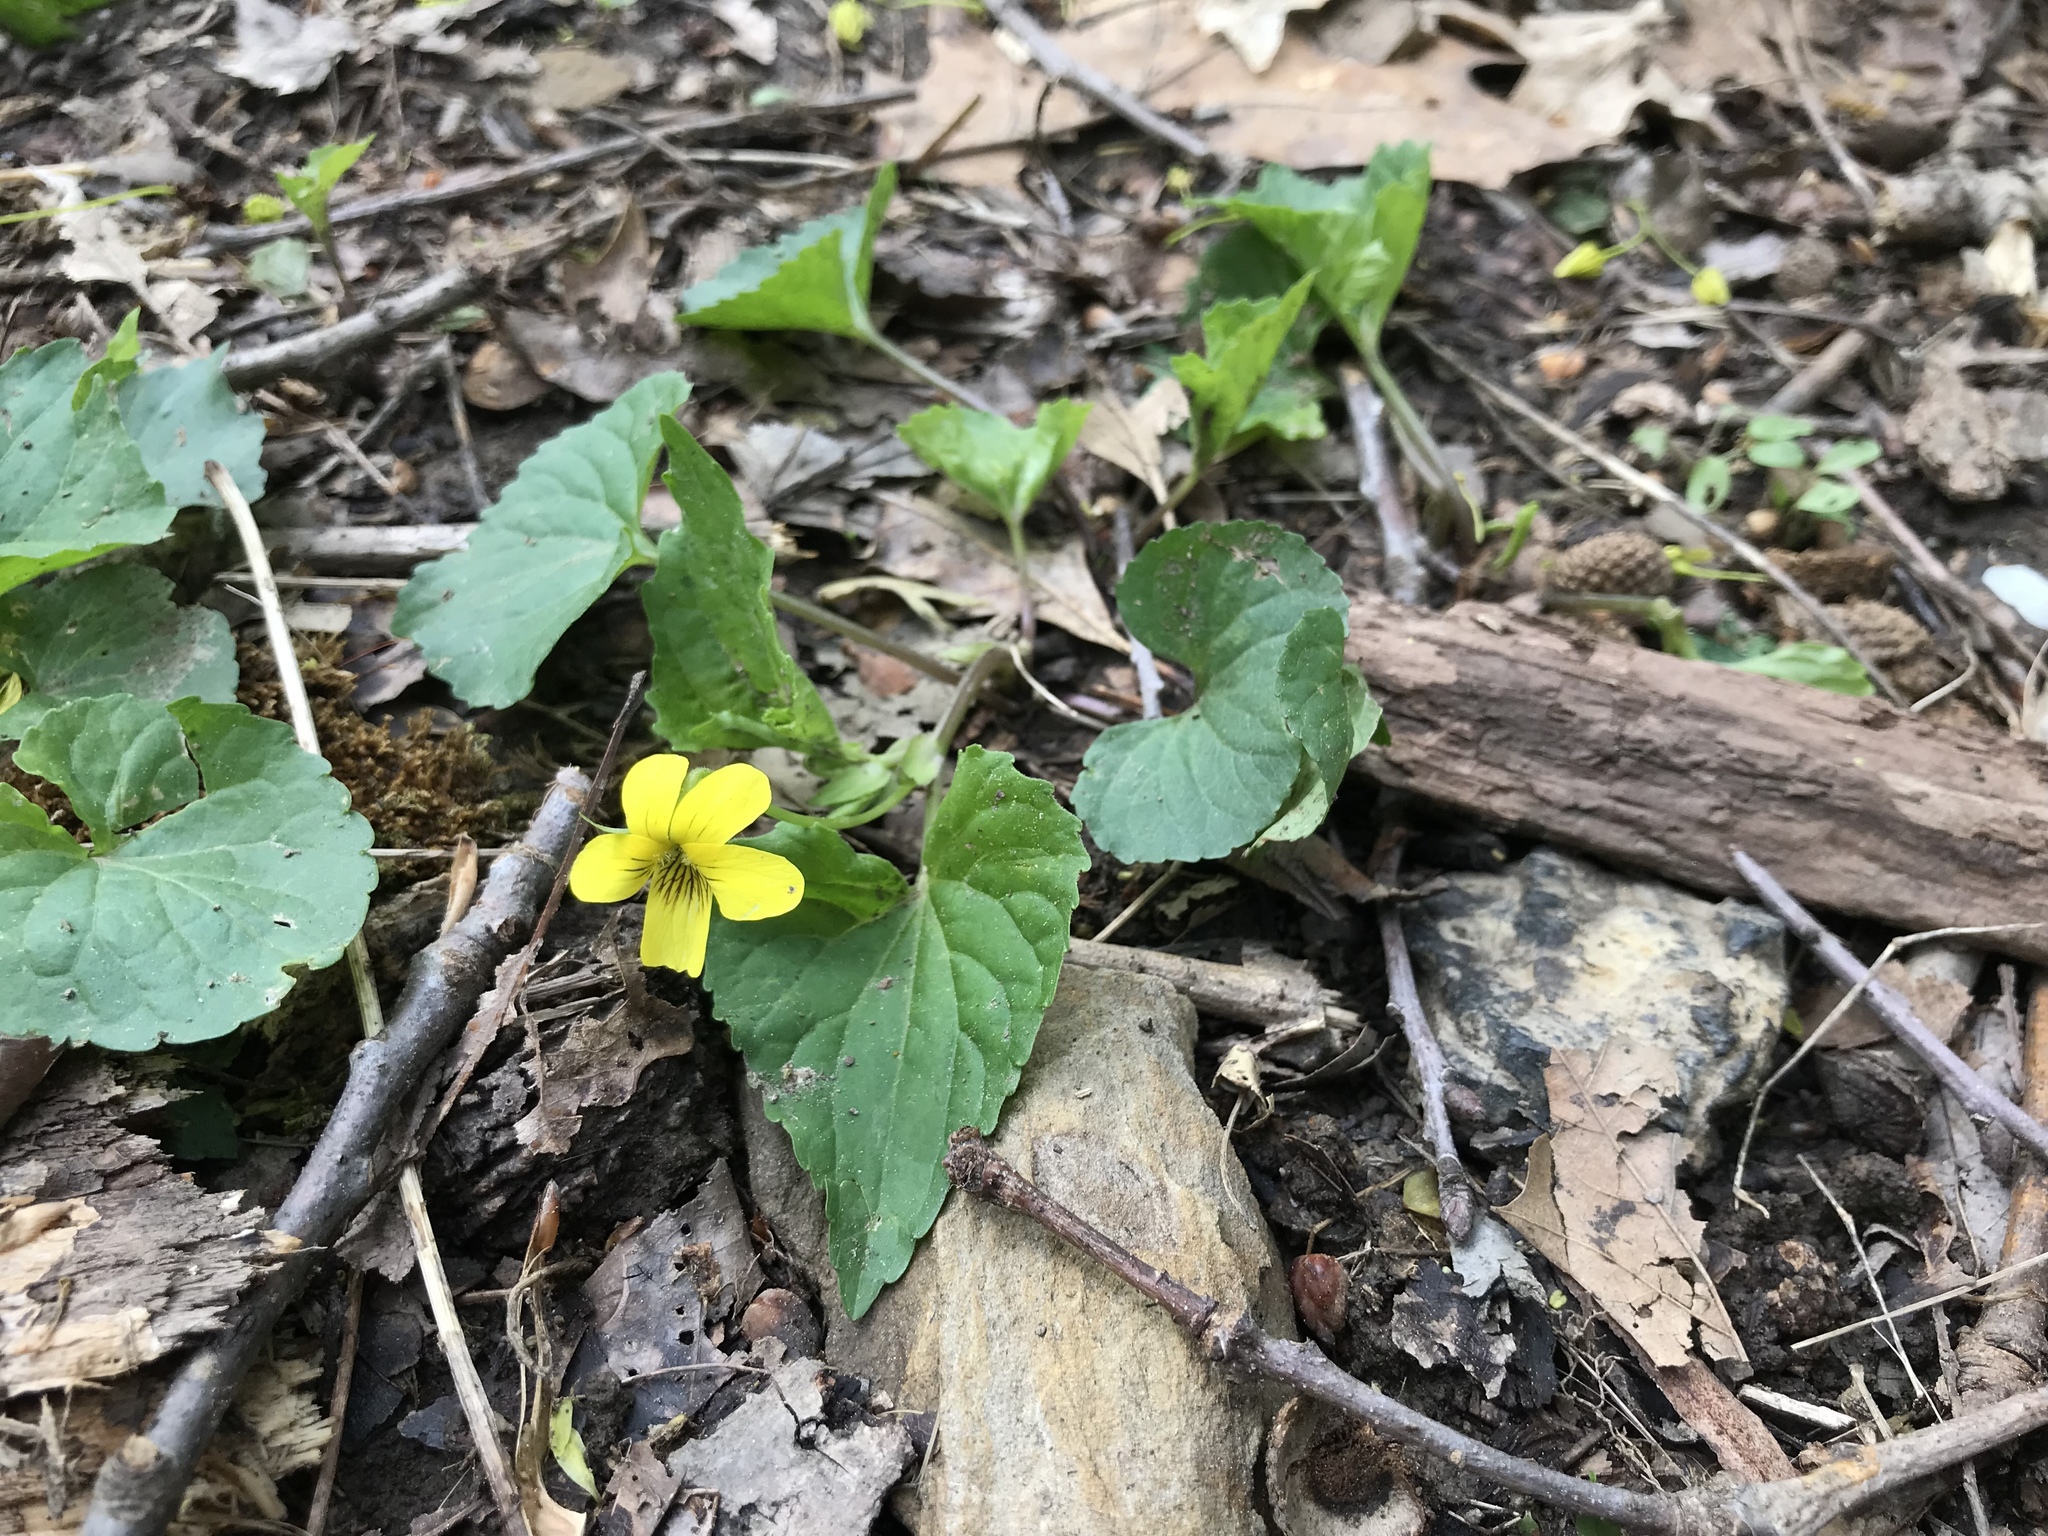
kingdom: Plantae
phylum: Tracheophyta
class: Magnoliopsida
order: Malpighiales
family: Violaceae
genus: Viola
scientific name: Viola eriocarpa
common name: Smooth yellow violet
